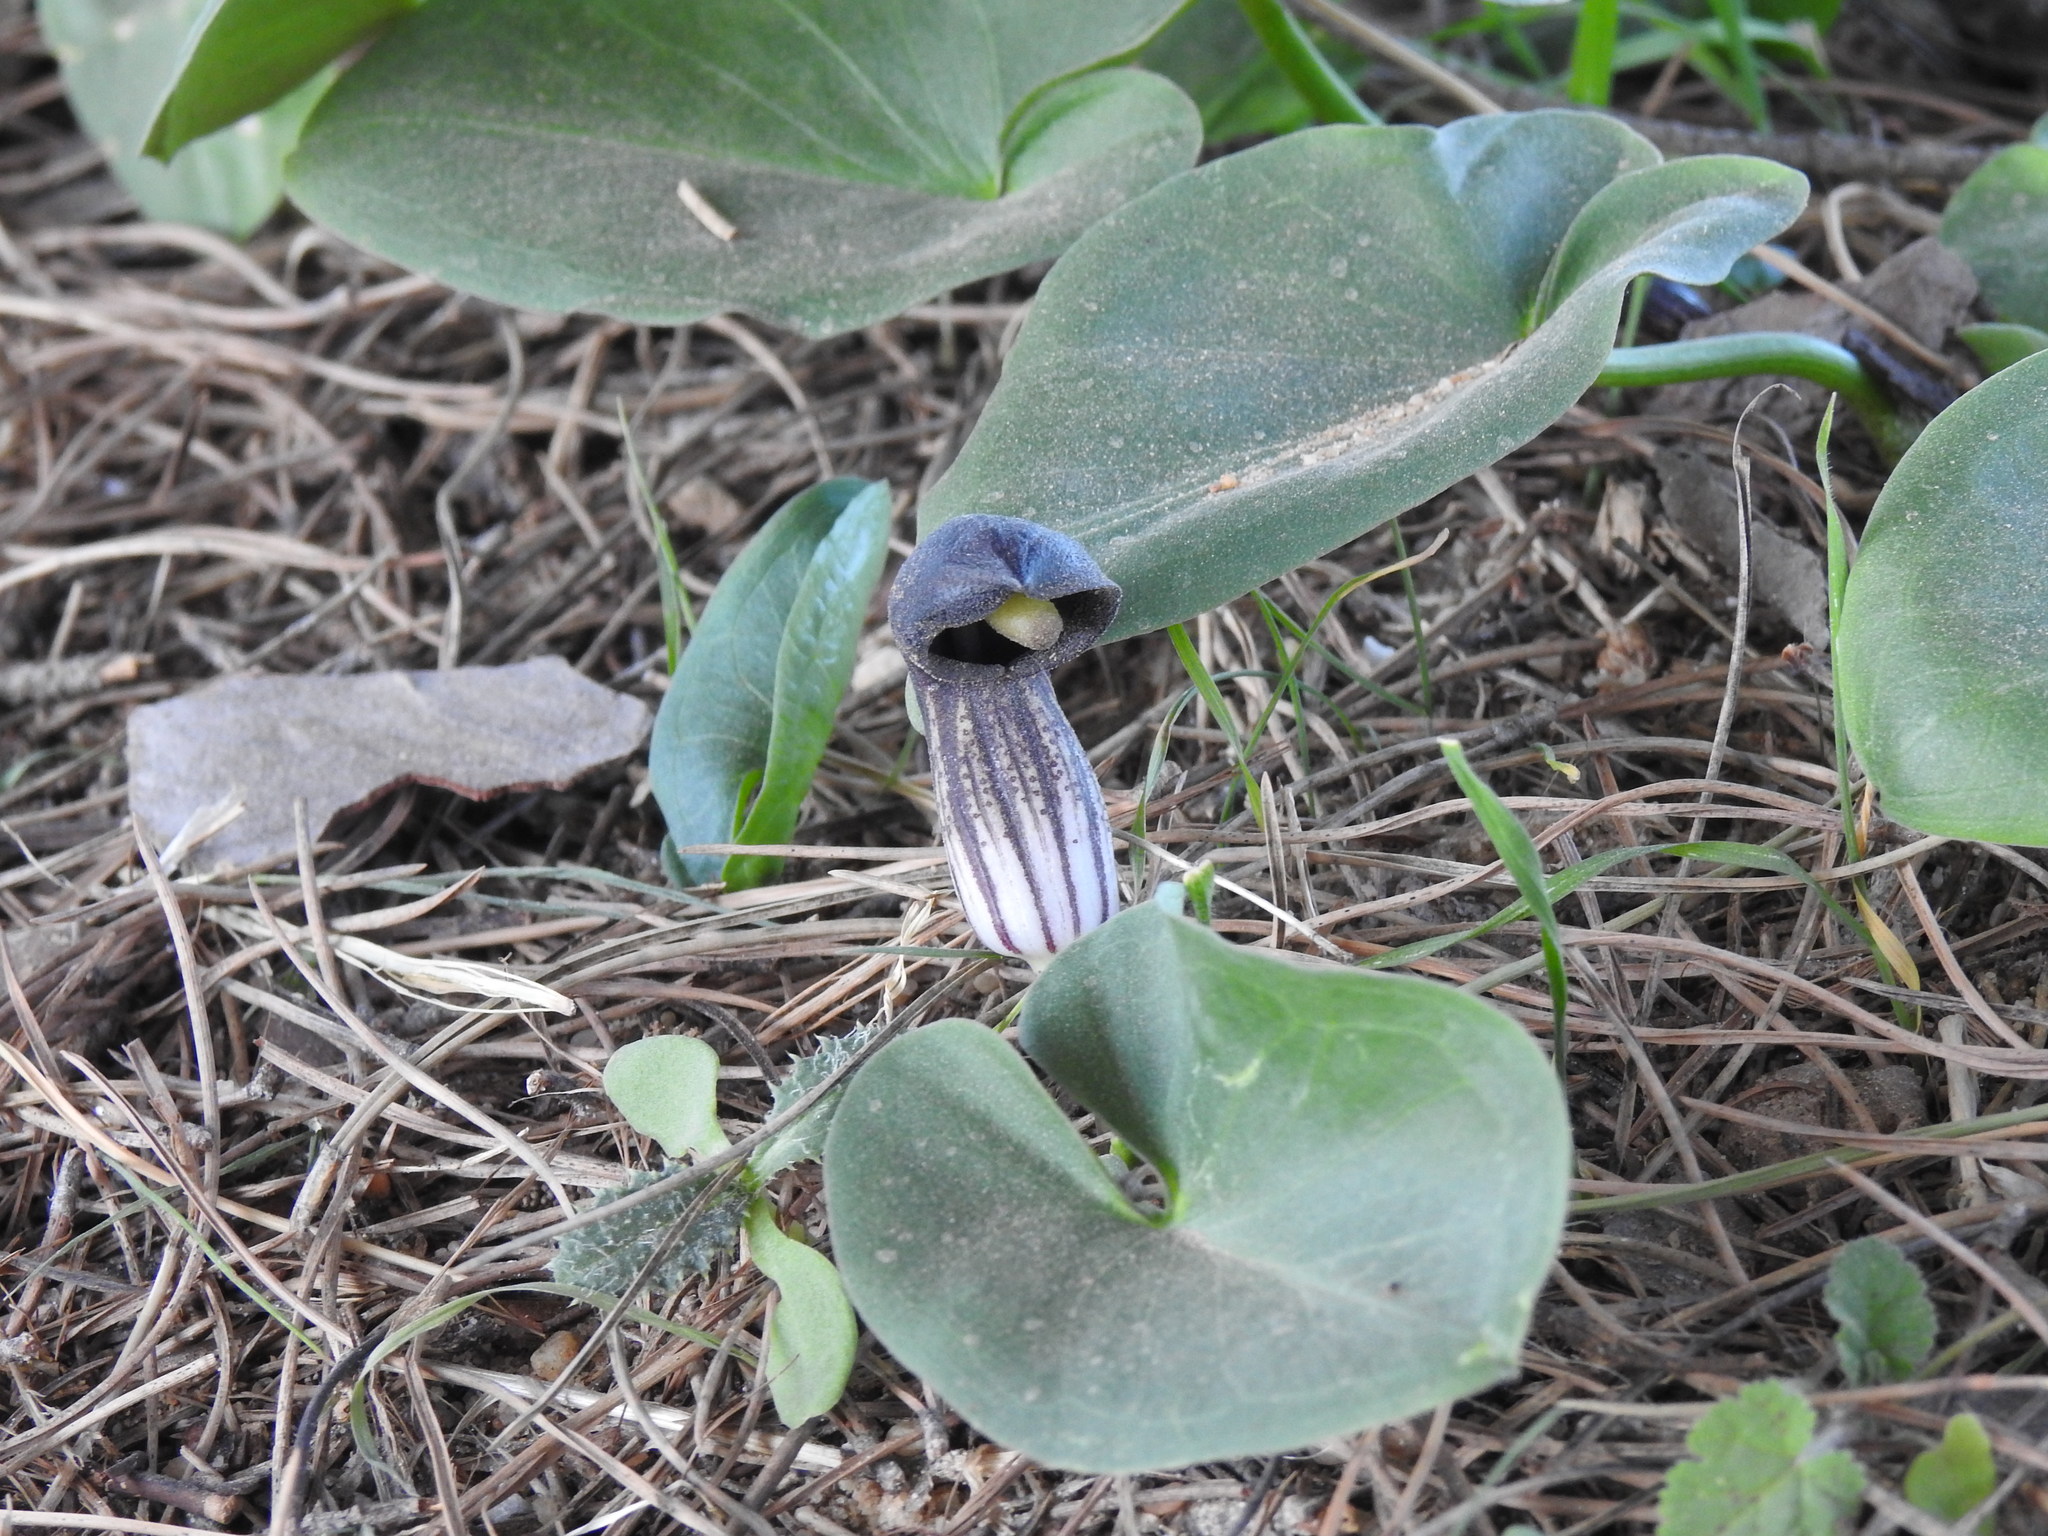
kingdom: Plantae
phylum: Tracheophyta
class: Liliopsida
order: Alismatales
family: Araceae
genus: Arisarum
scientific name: Arisarum simorrhinum
